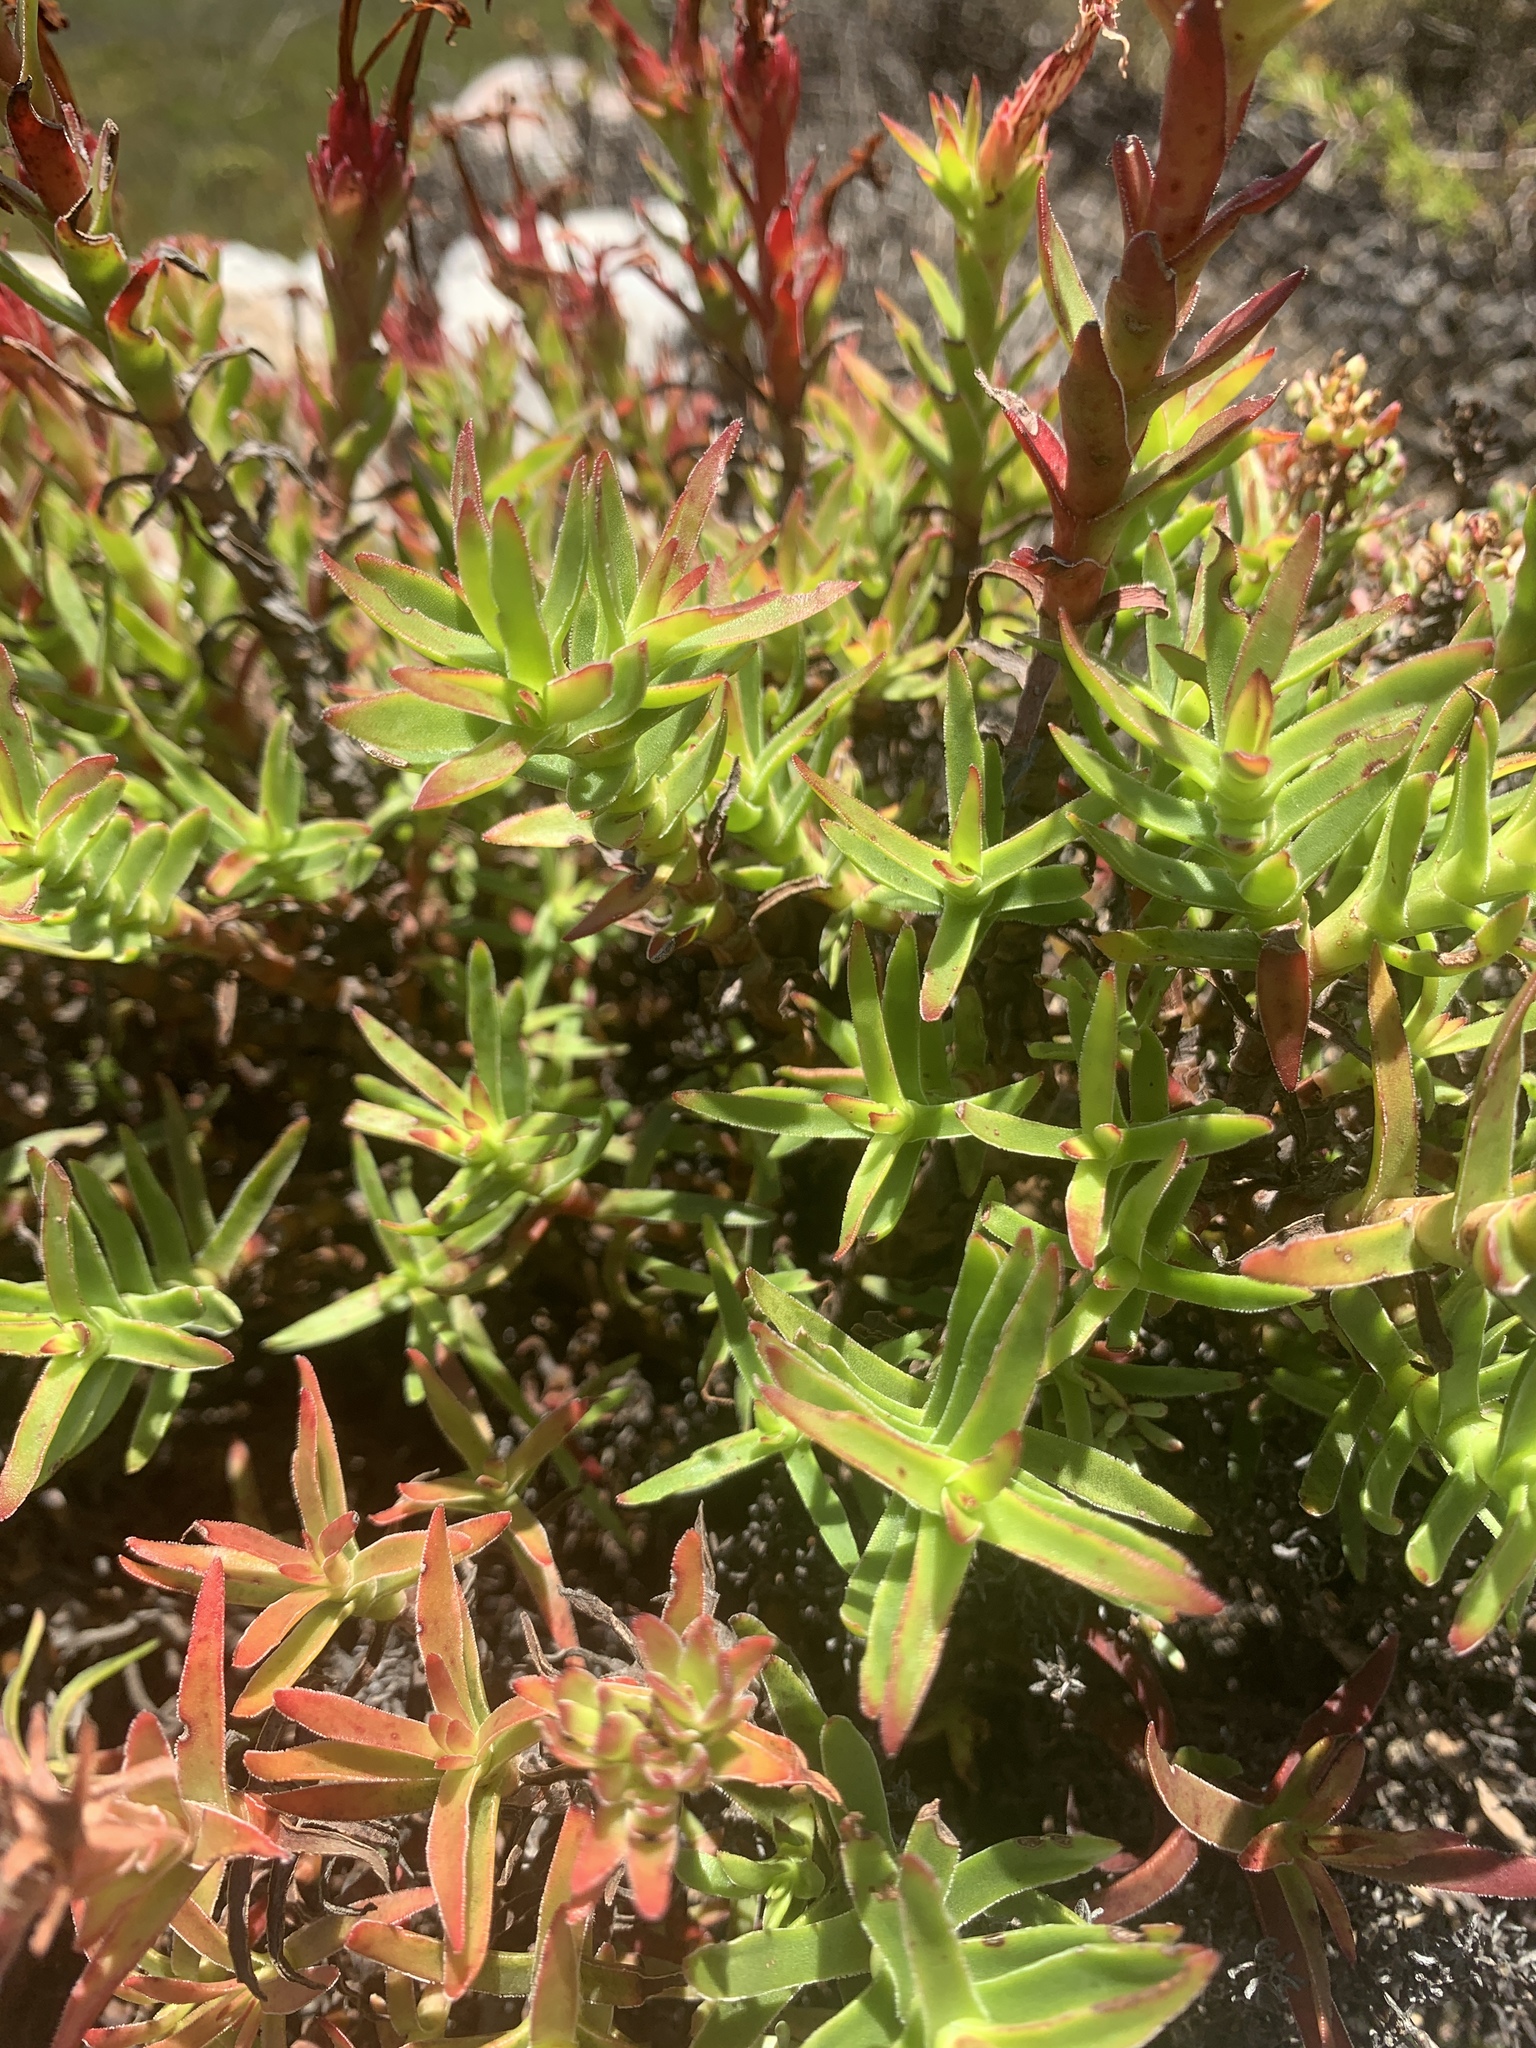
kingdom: Plantae
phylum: Tracheophyta
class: Magnoliopsida
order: Saxifragales
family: Crassulaceae
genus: Crassula
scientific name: Crassula fascicularis
